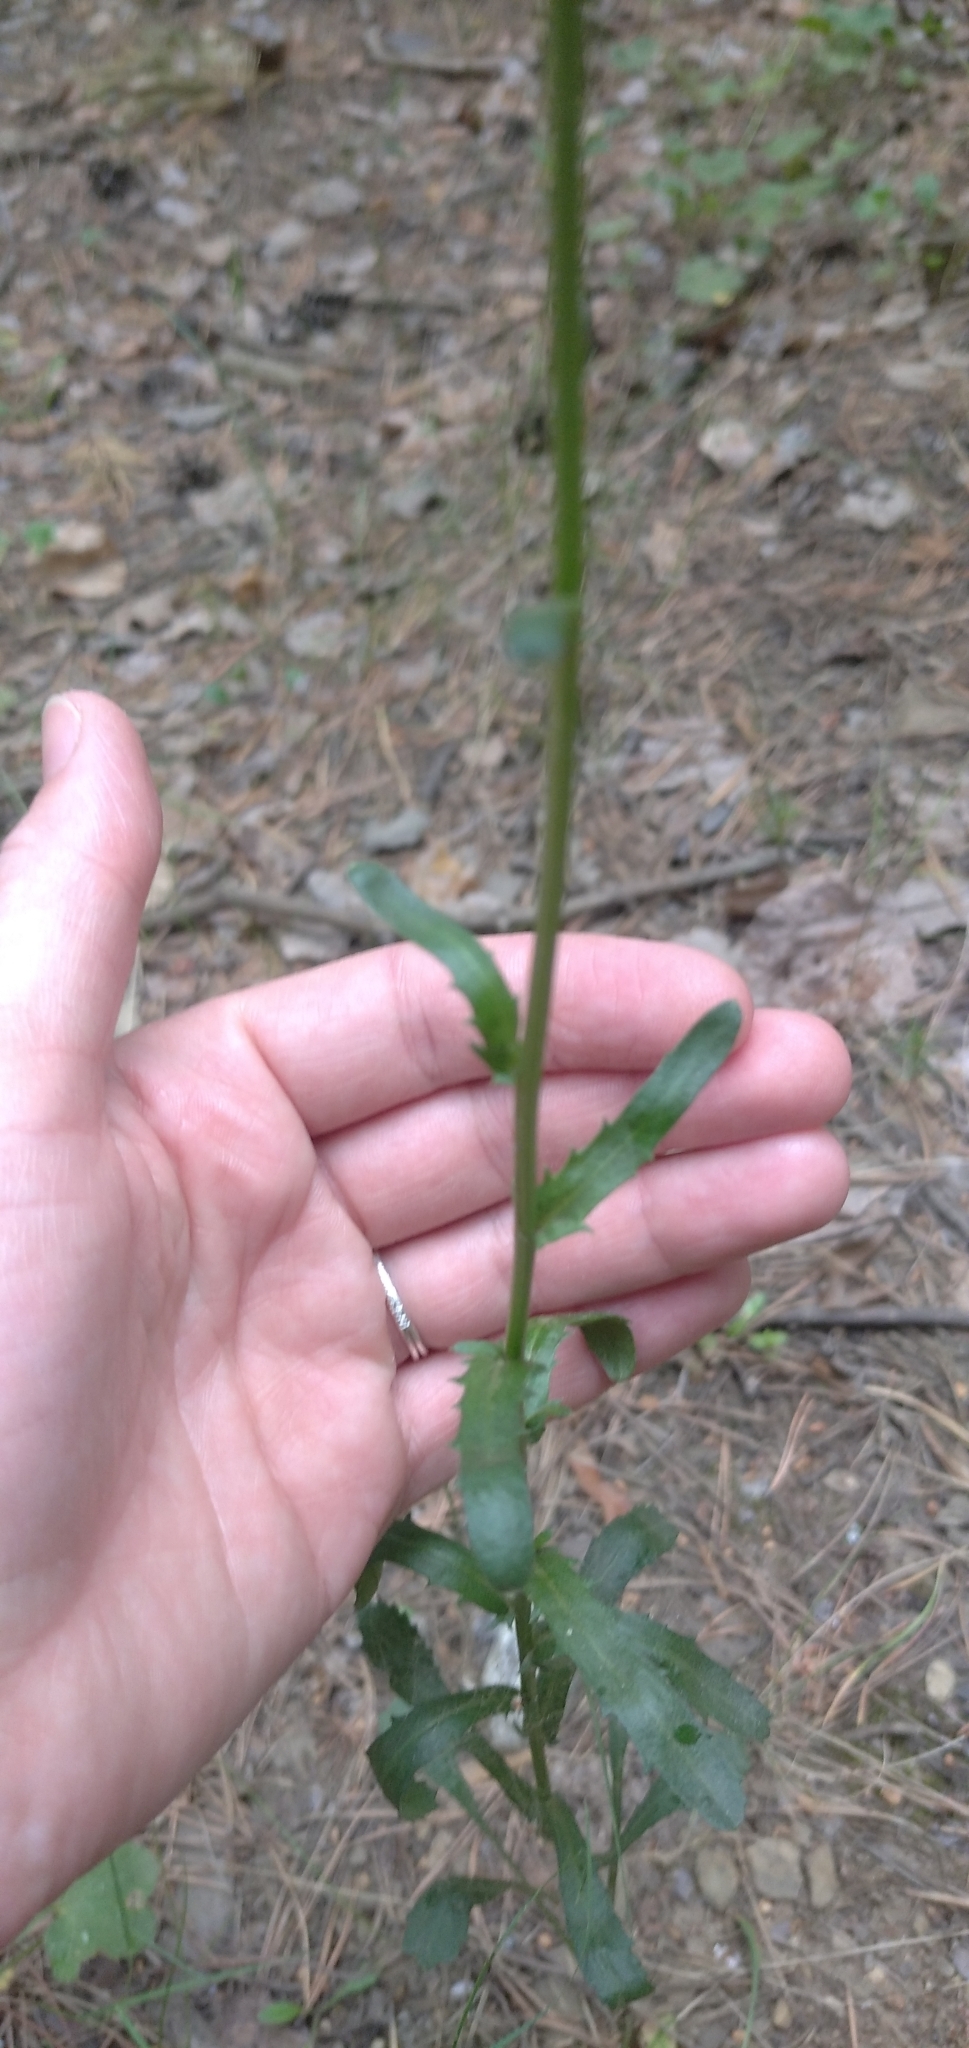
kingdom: Plantae
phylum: Tracheophyta
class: Magnoliopsida
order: Asterales
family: Asteraceae
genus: Leucanthemum
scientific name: Leucanthemum vulgare
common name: Oxeye daisy
